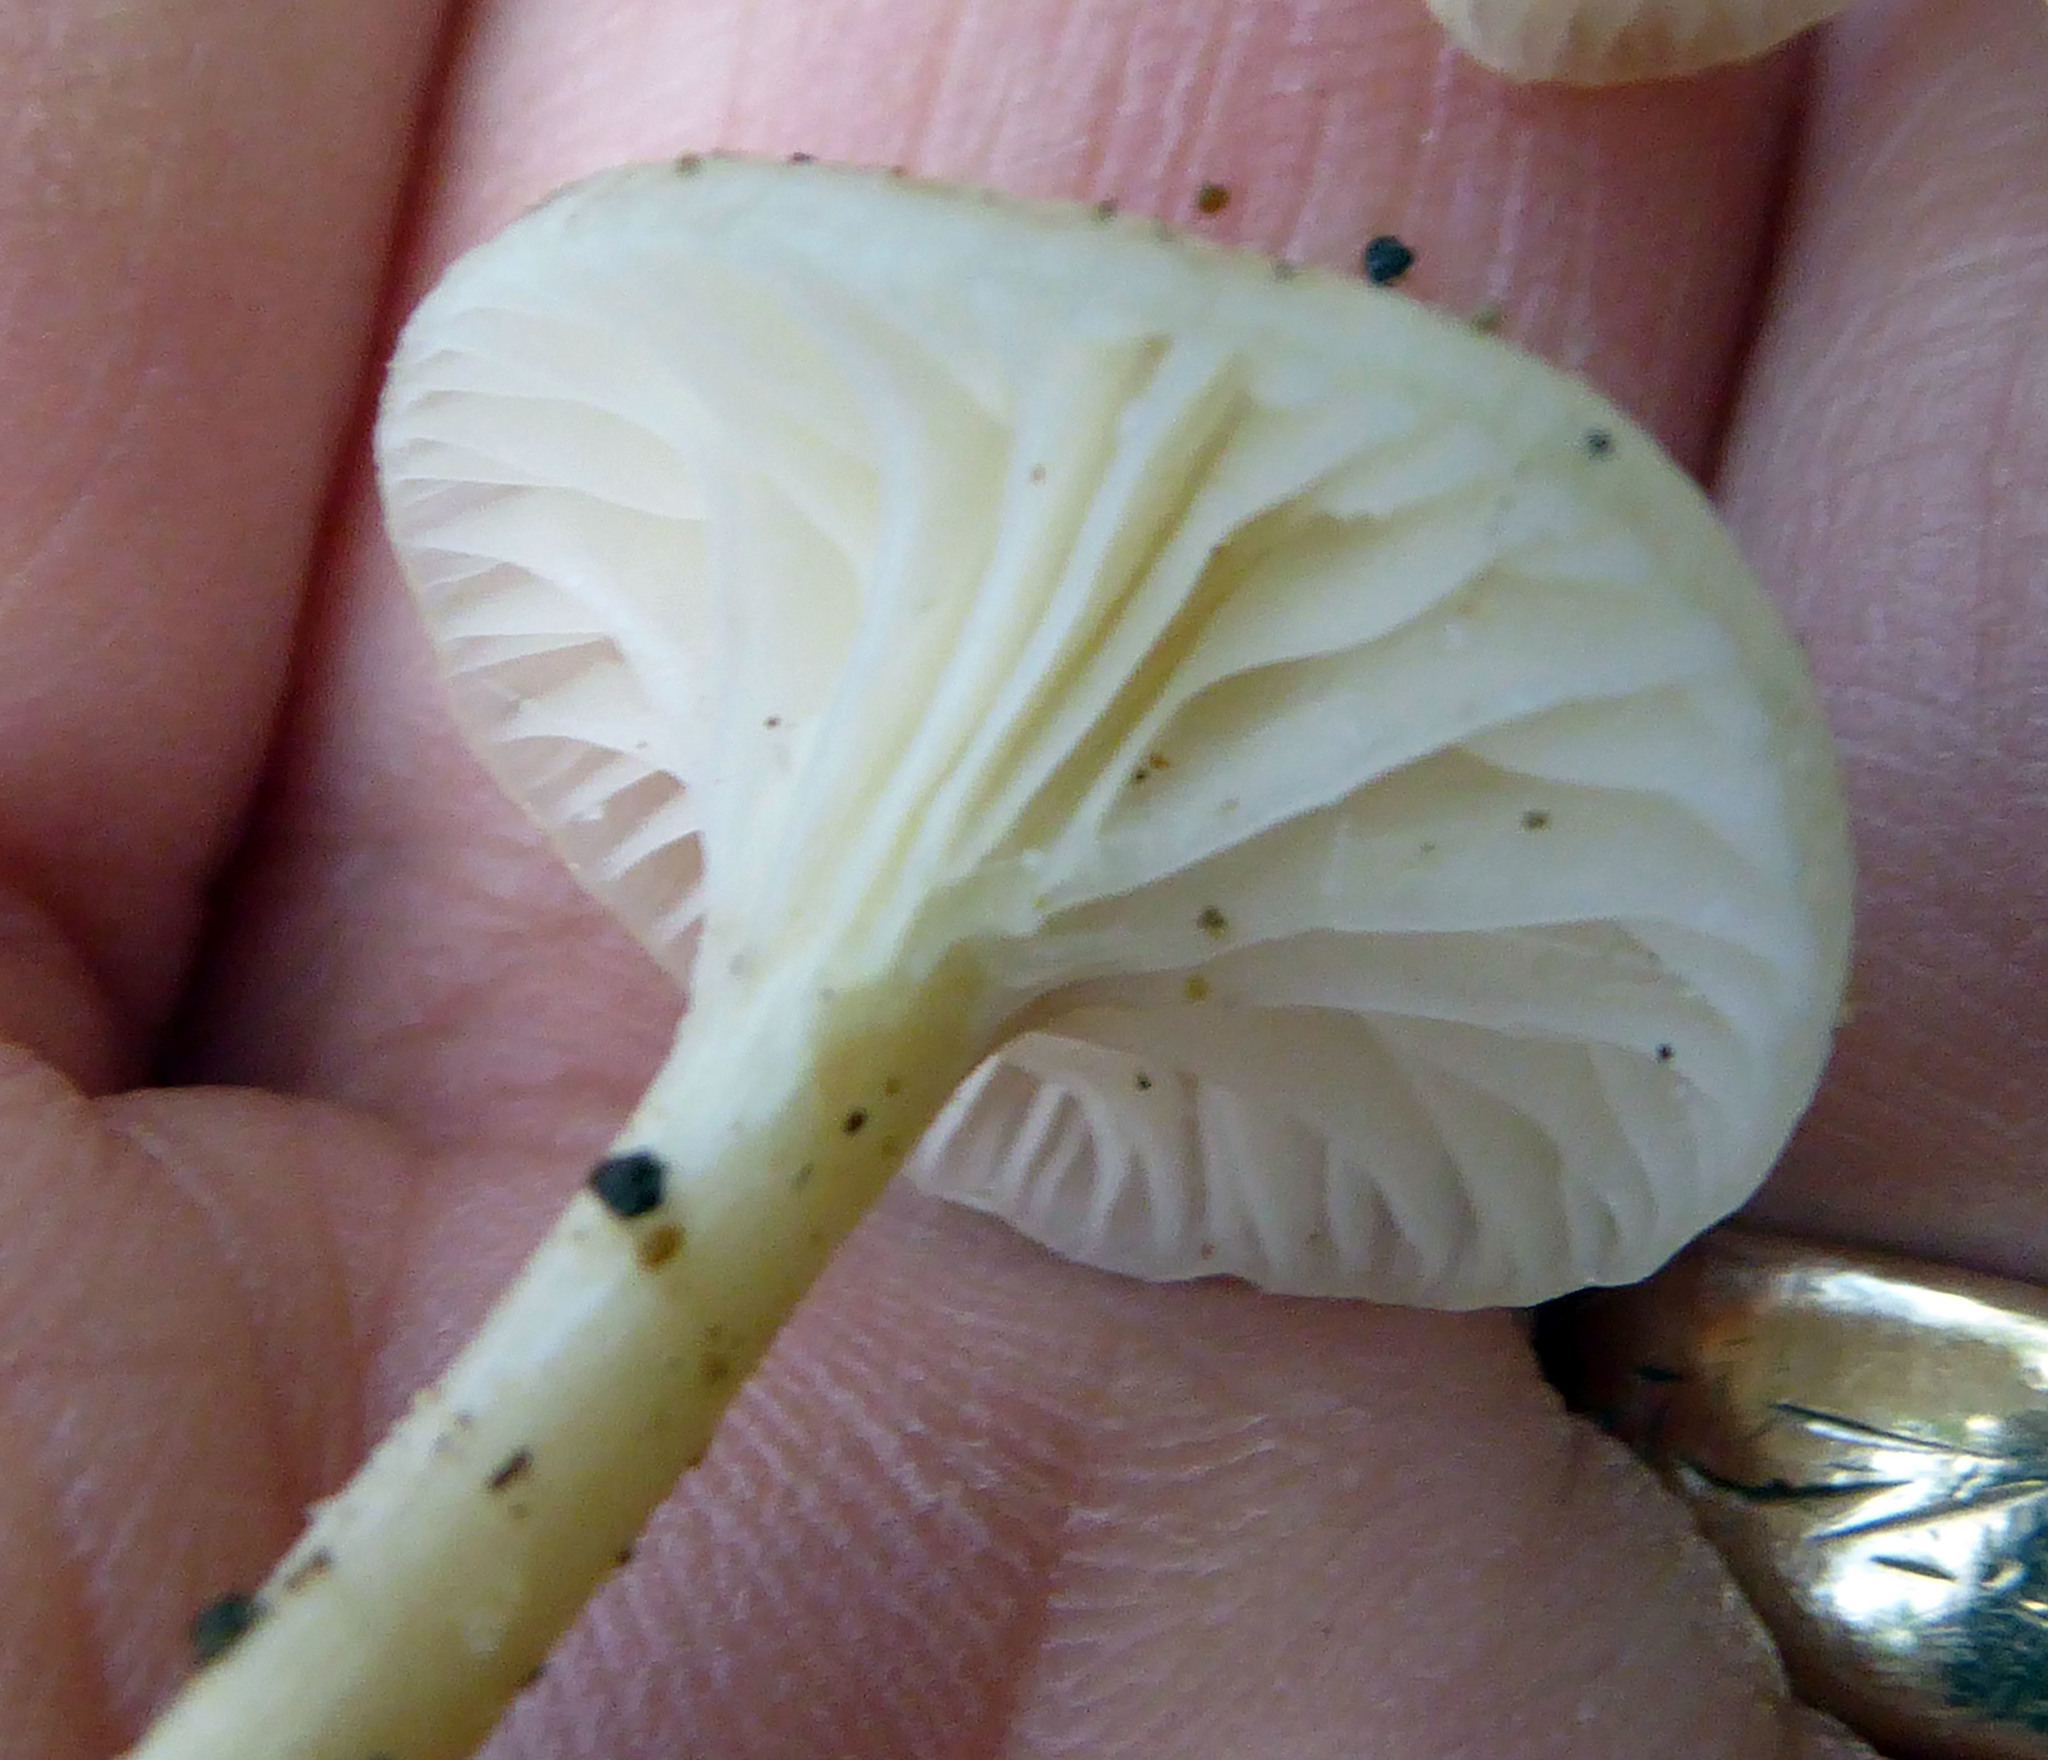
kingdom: Fungi
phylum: Basidiomycota
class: Agaricomycetes
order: Agaricales
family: Hygrophoraceae
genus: Hygrophorus
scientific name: Hygrophorus involutus
